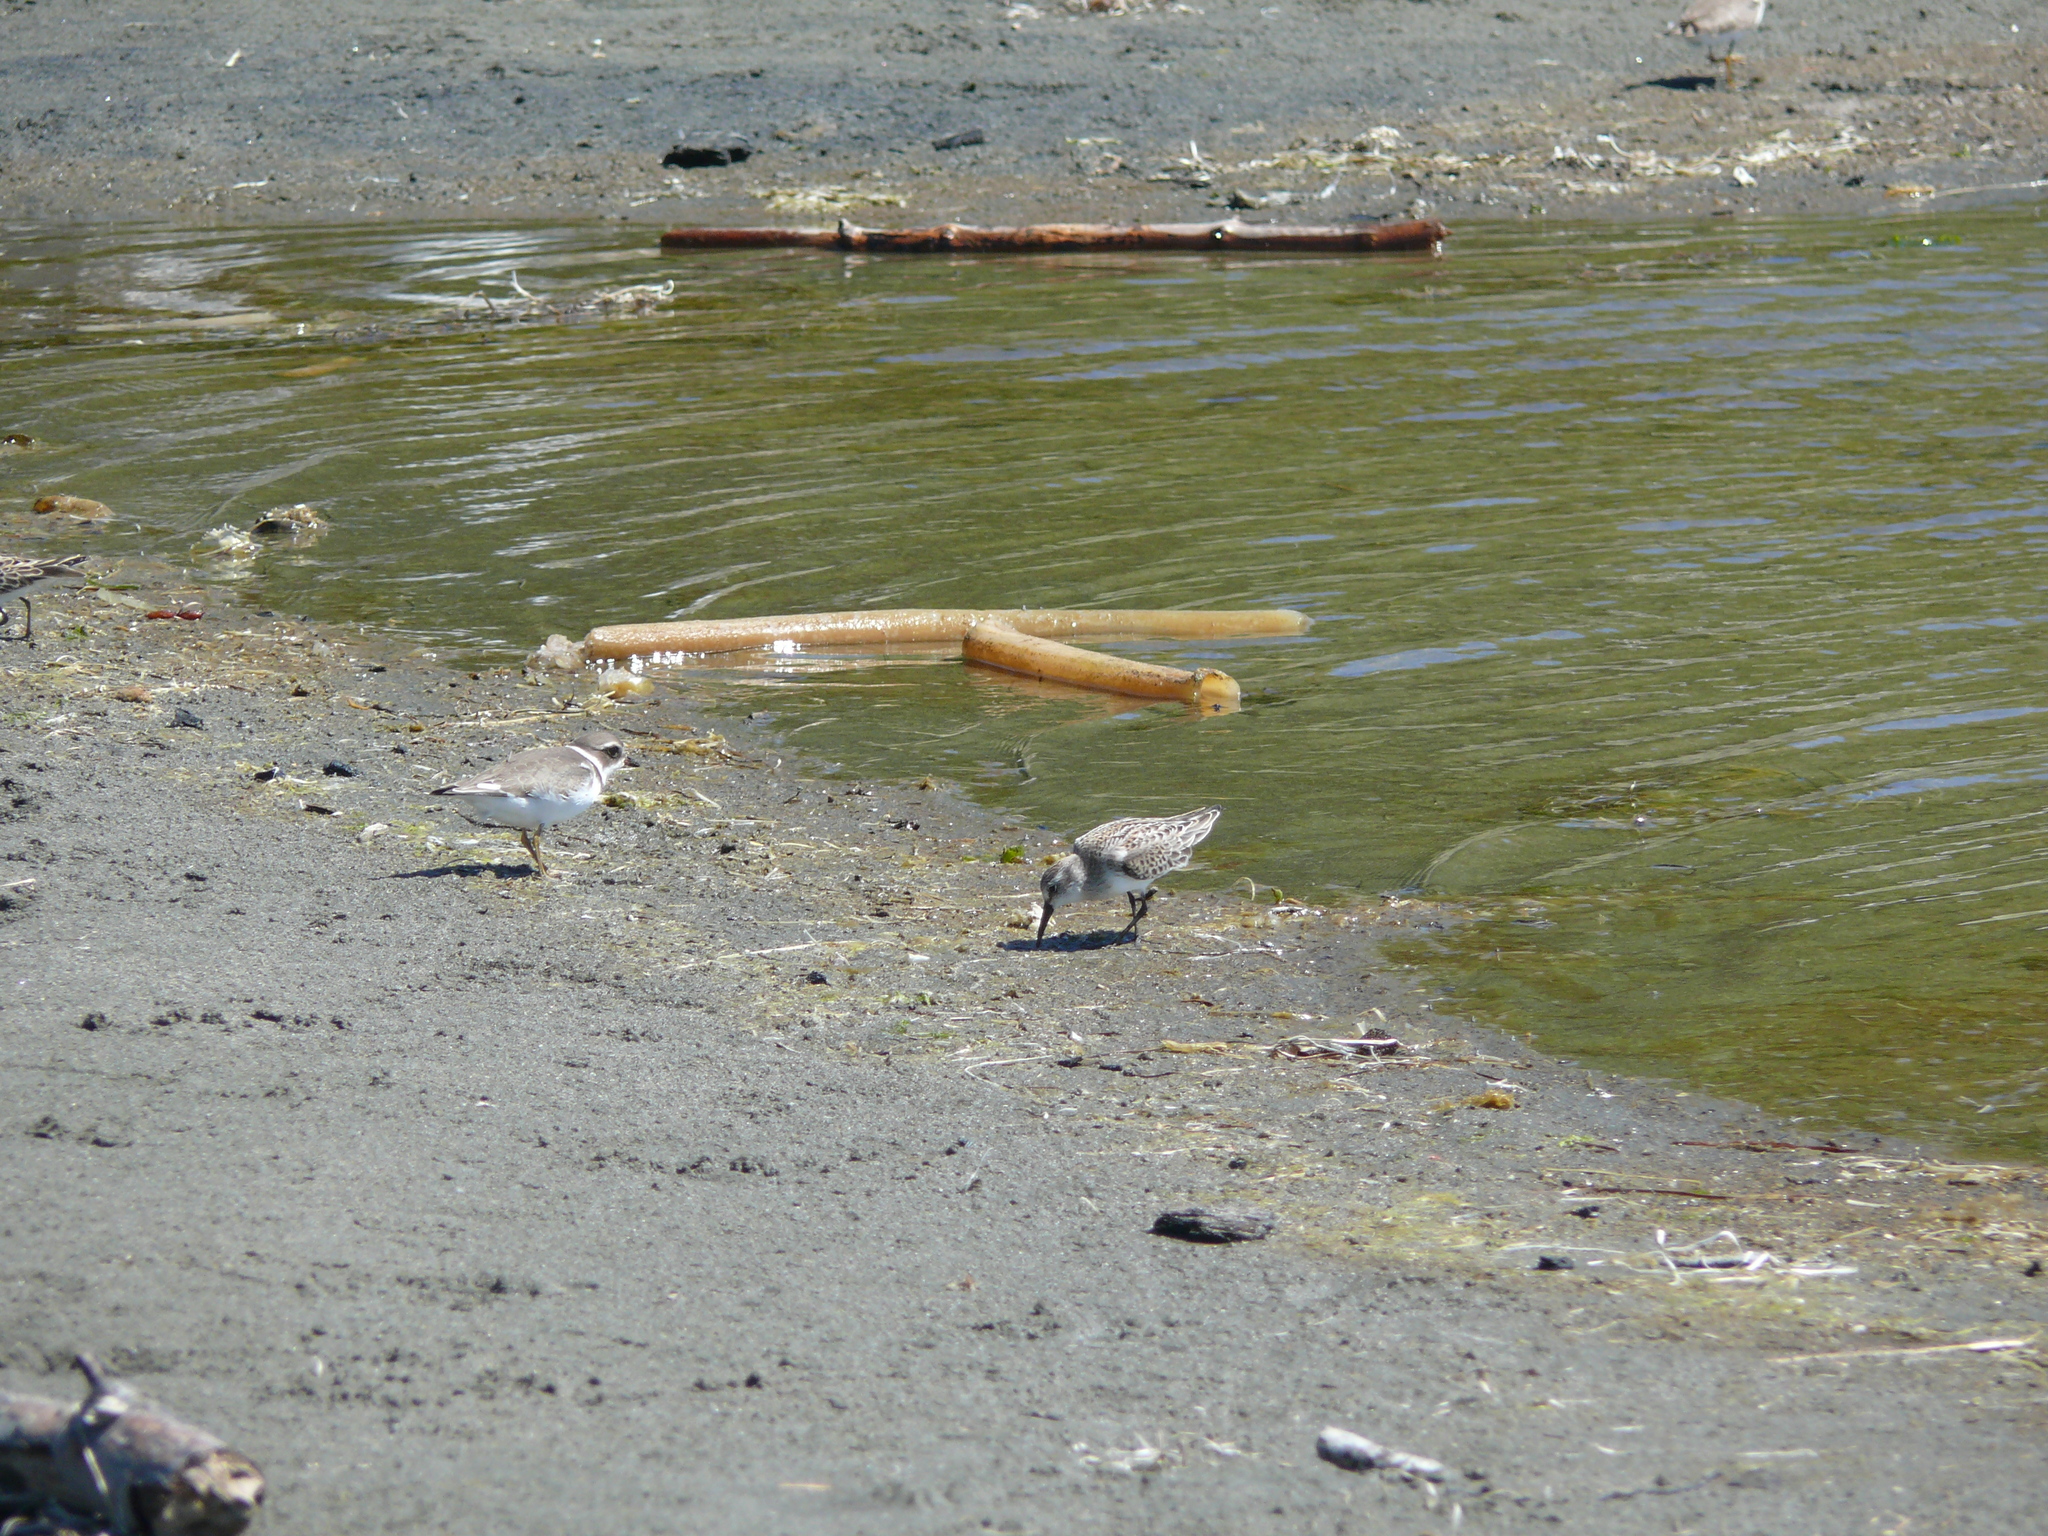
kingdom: Animalia
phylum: Chordata
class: Aves
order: Charadriiformes
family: Charadriidae
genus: Charadrius
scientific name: Charadrius semipalmatus
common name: Semipalmated plover
